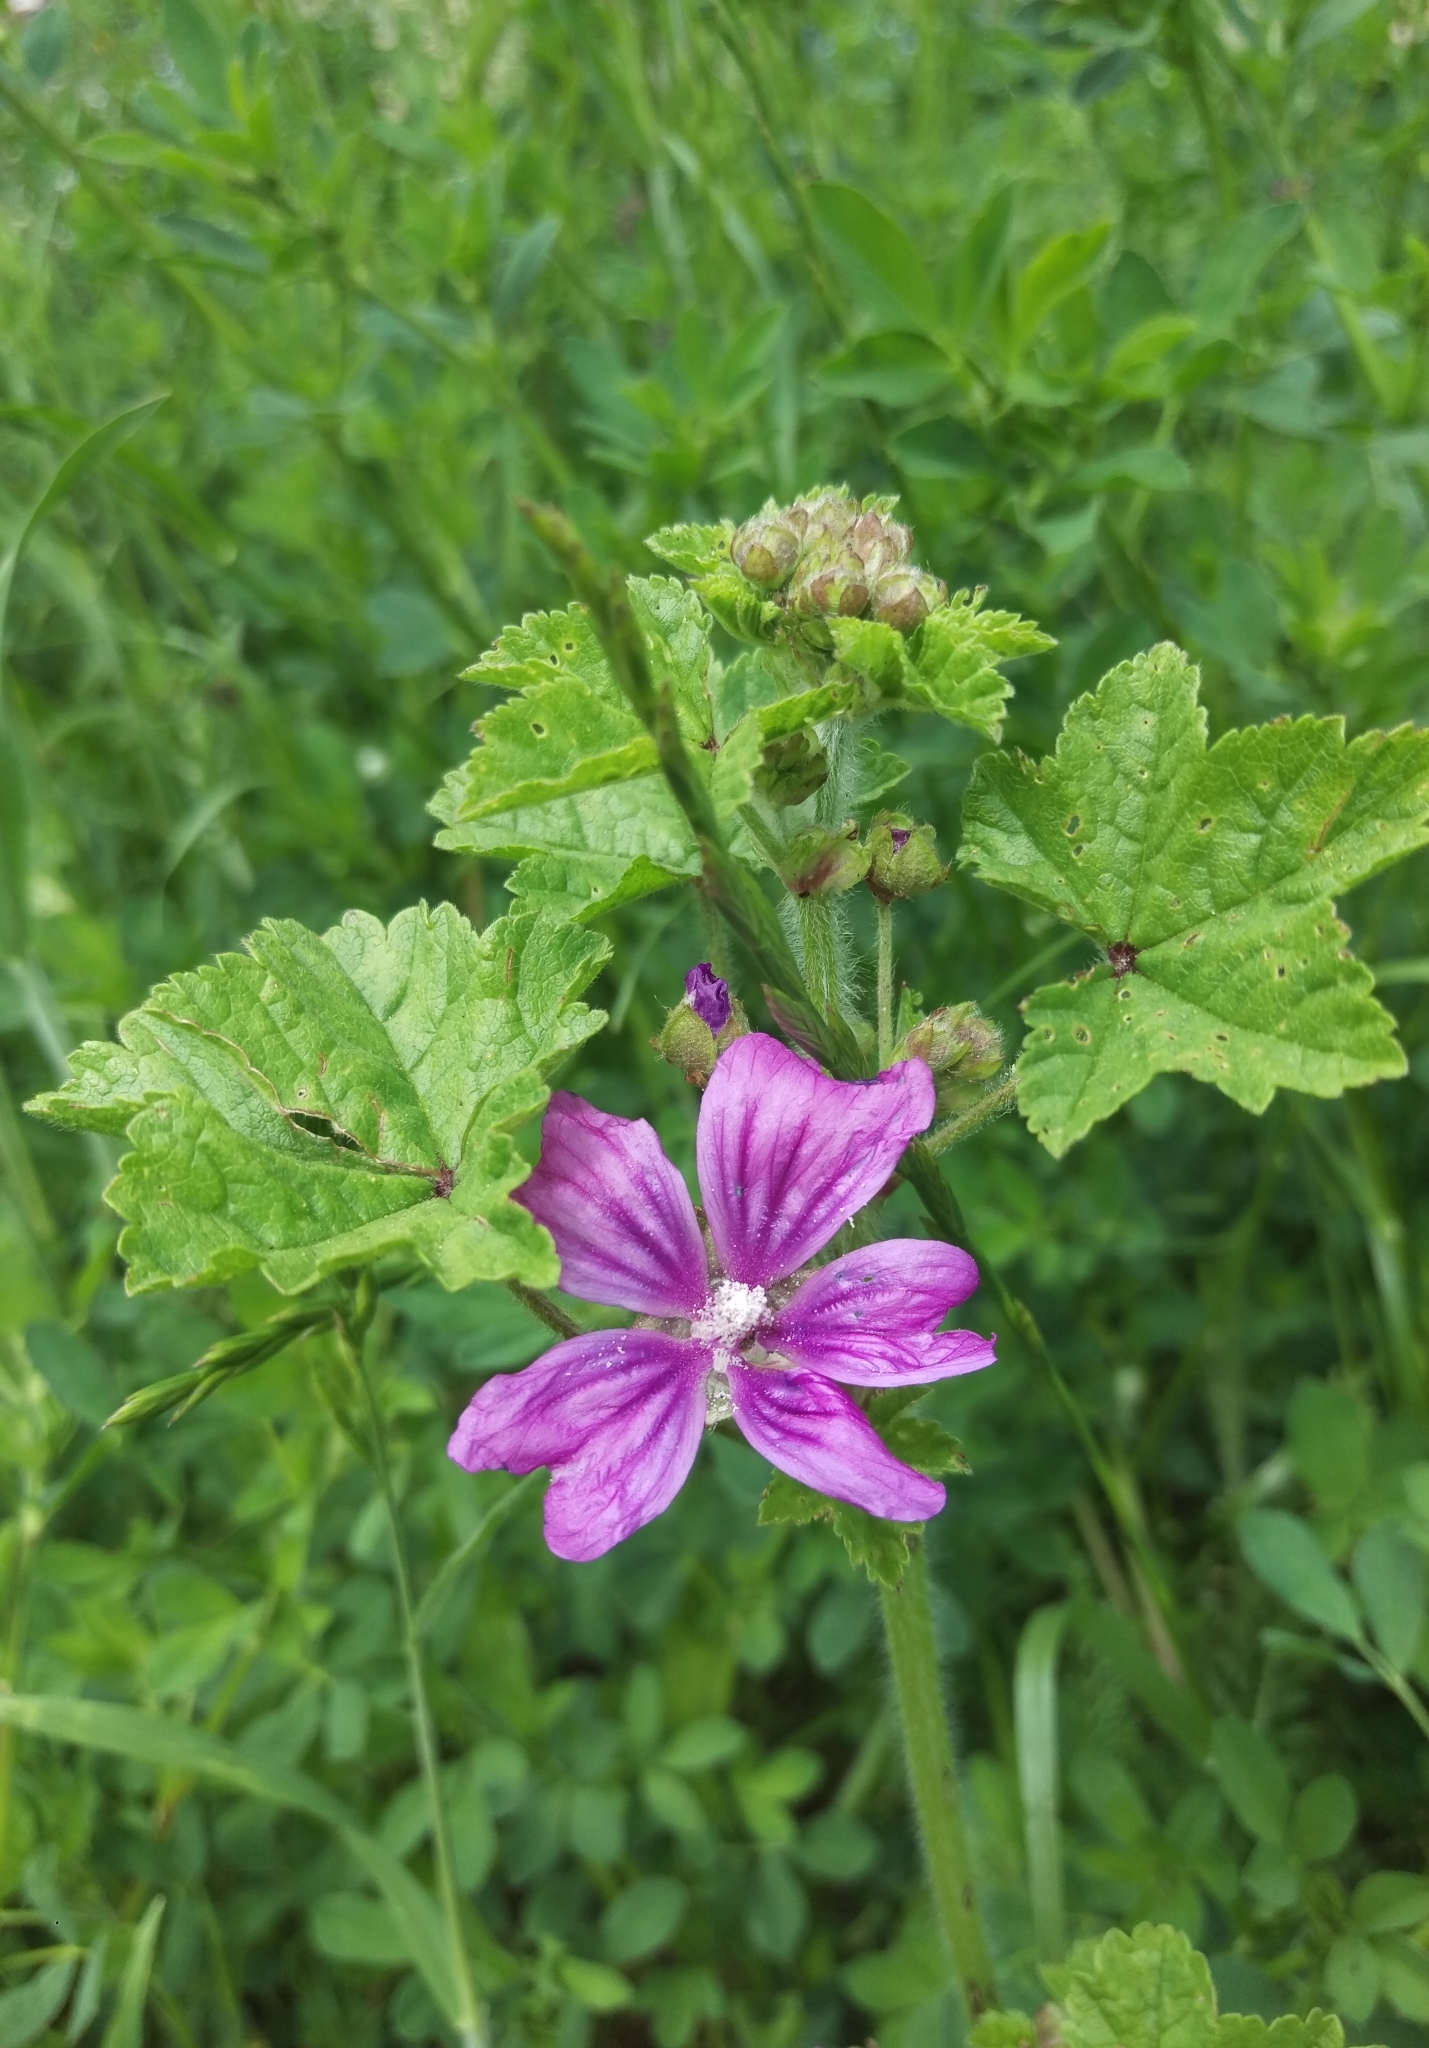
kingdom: Plantae
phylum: Tracheophyta
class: Magnoliopsida
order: Malvales
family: Malvaceae
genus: Malva
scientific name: Malva sylvestris
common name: Common mallow
